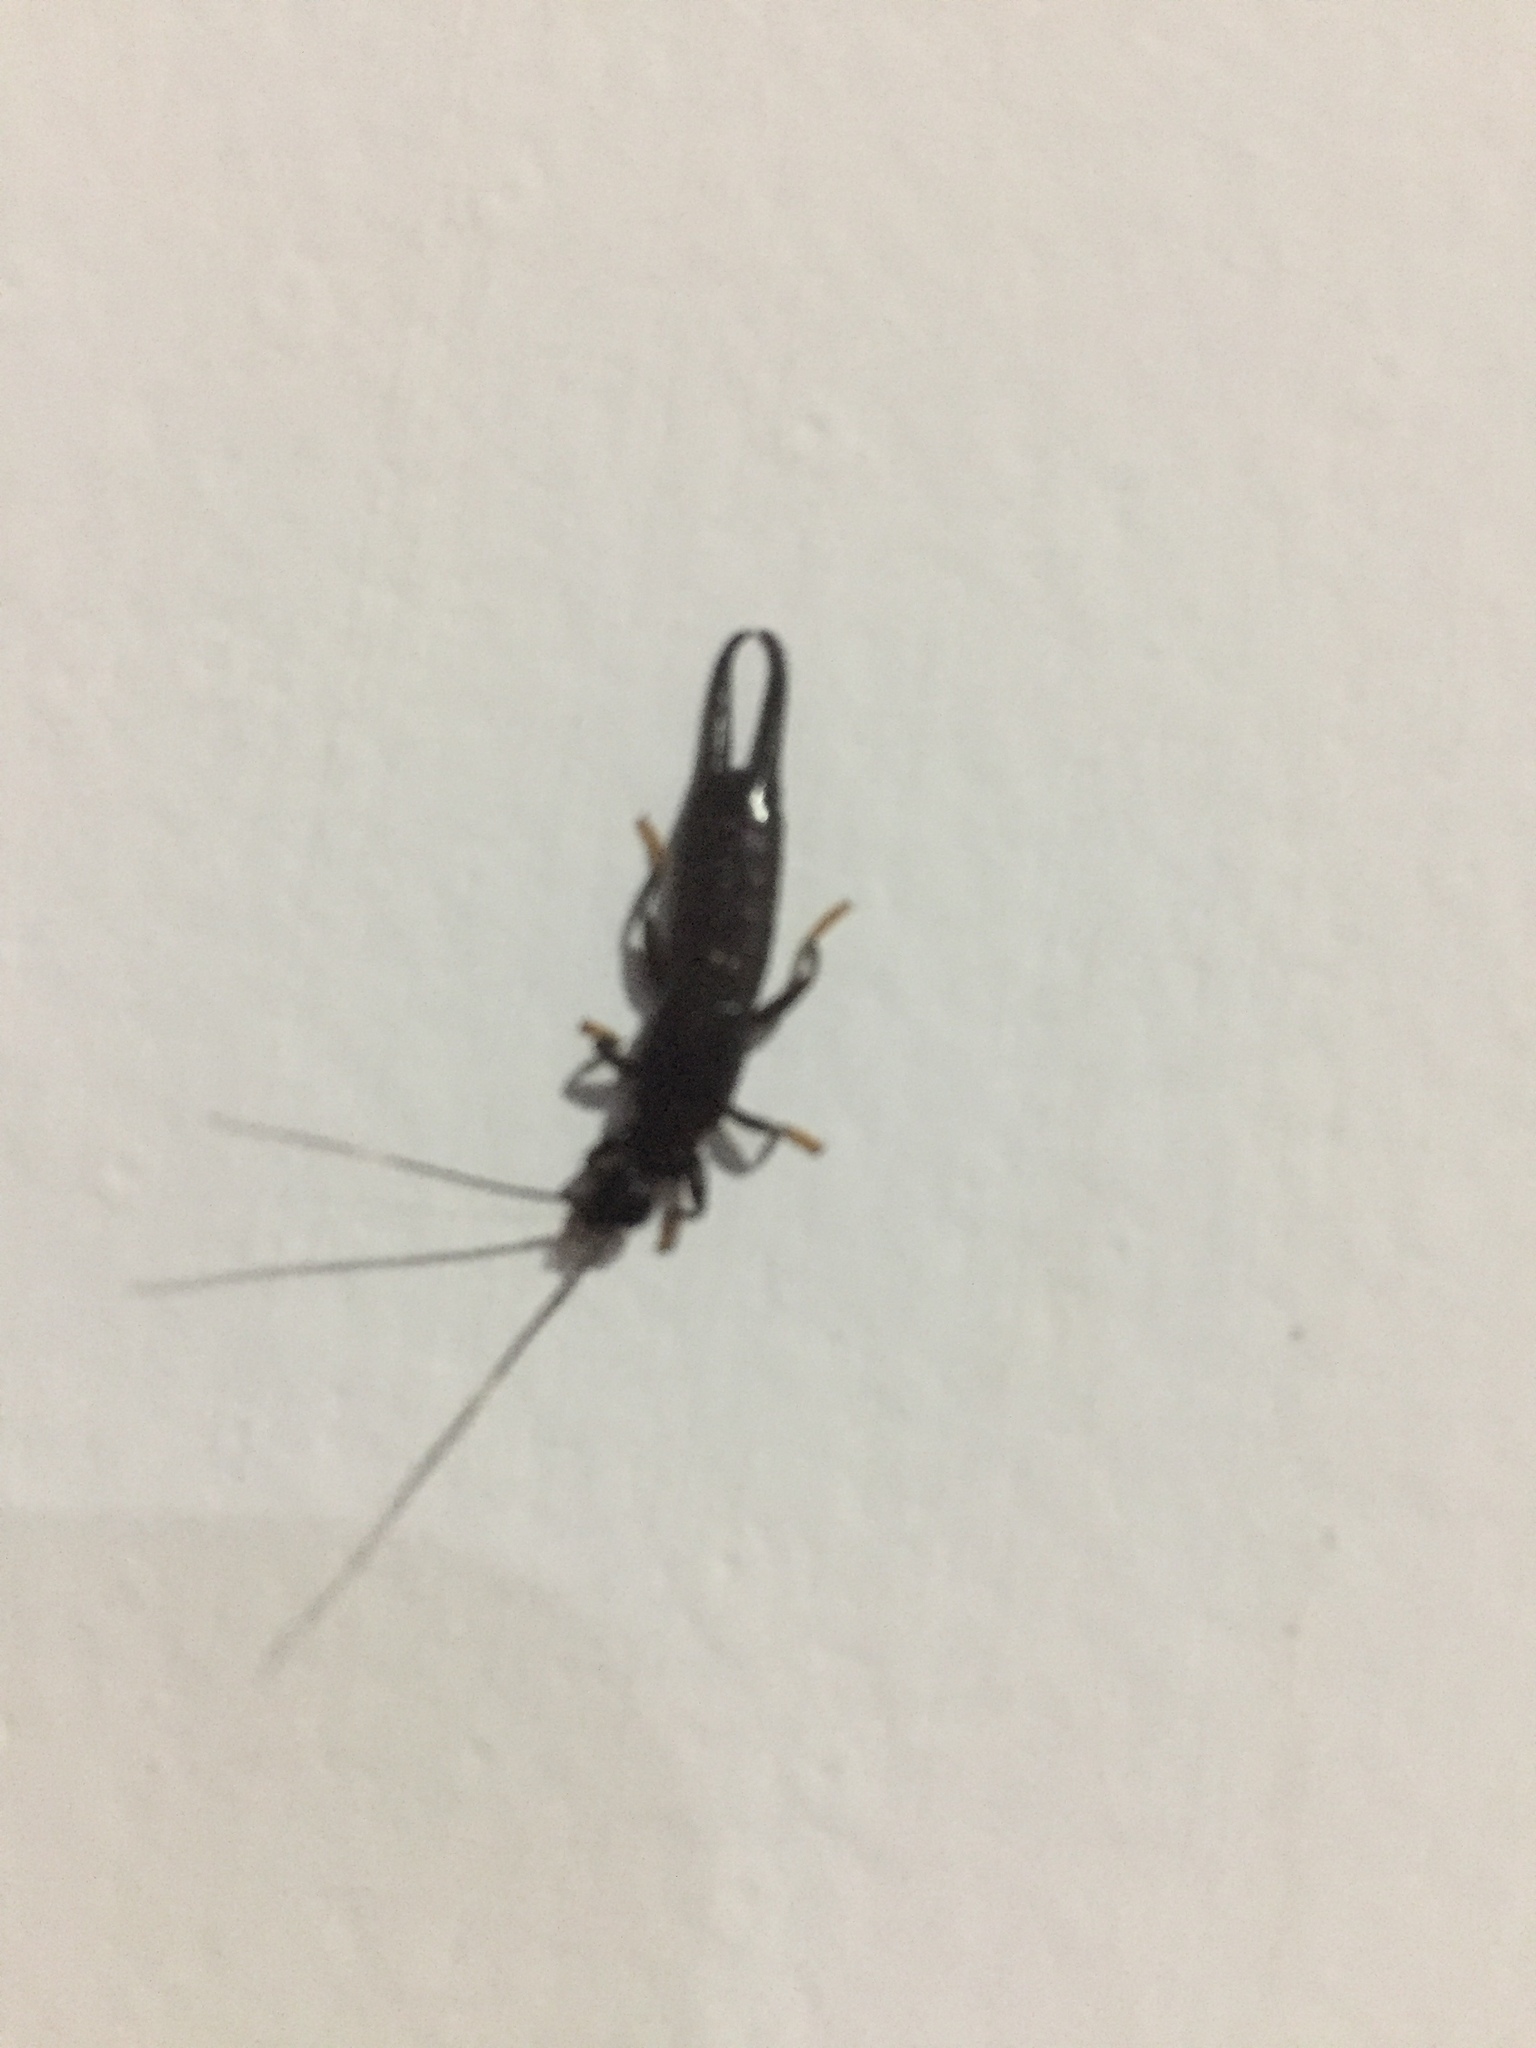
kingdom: Animalia
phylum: Arthropoda
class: Insecta
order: Dermaptera
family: Chelisochidae
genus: Chelisoches
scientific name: Chelisoches morio
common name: Black earwig
